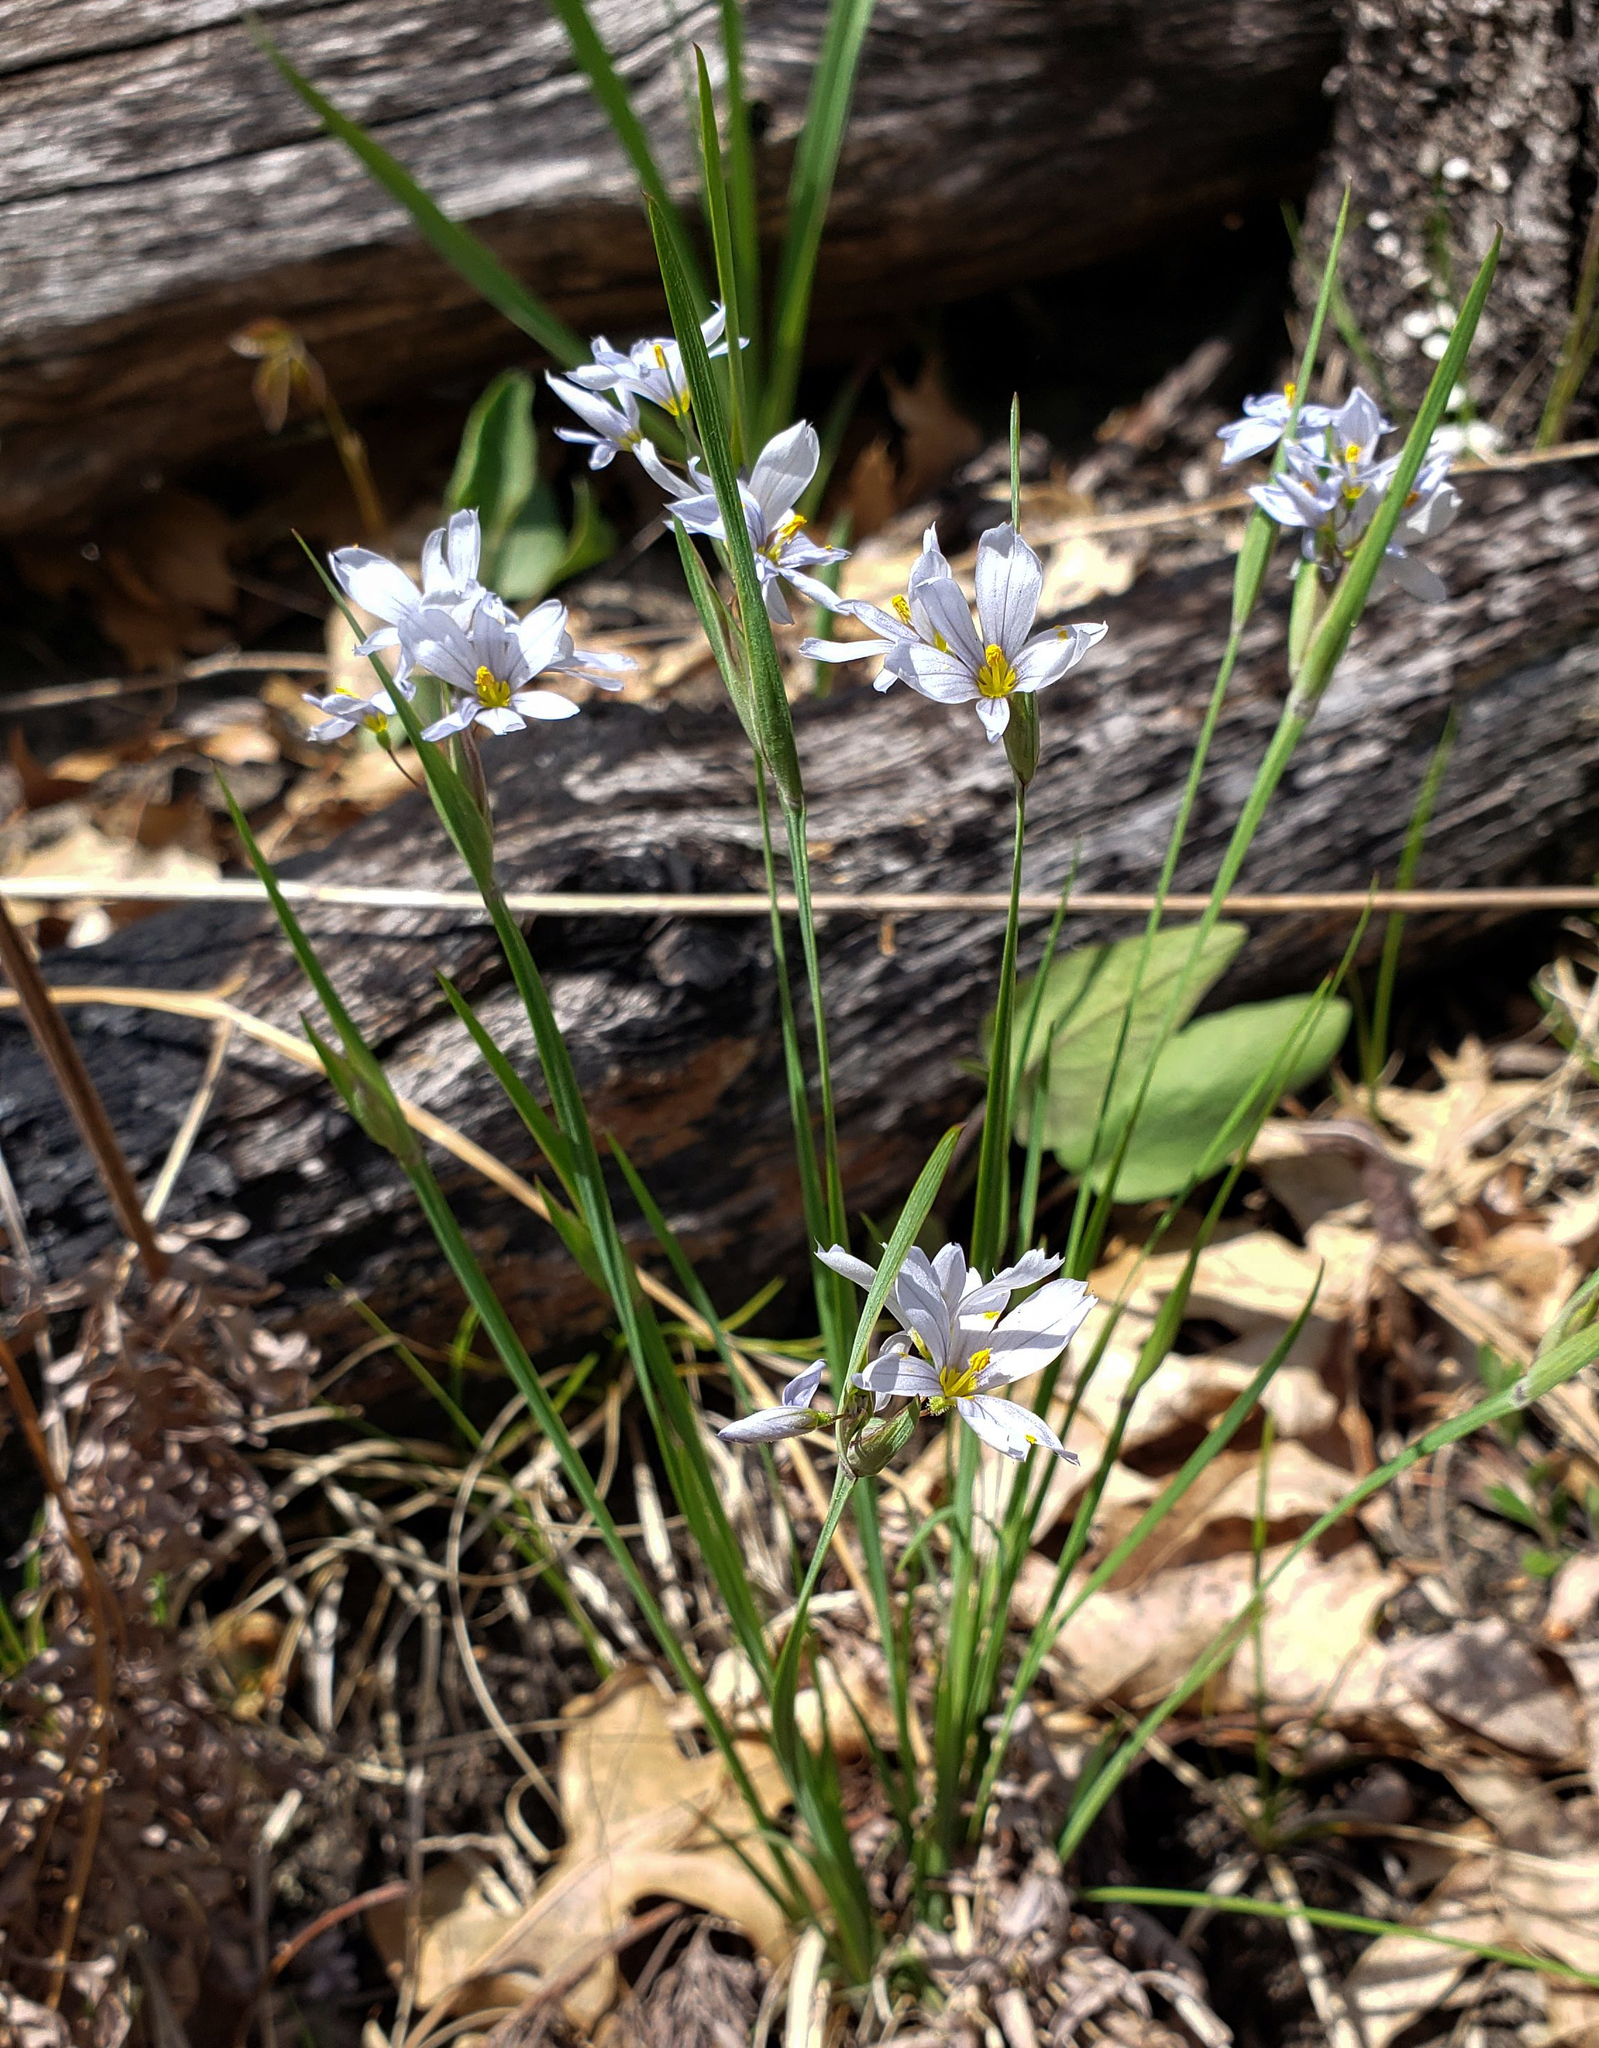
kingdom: Plantae
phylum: Tracheophyta
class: Liliopsida
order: Asparagales
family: Iridaceae
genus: Sisyrinchium
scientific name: Sisyrinchium campestre
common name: Prairie blue-eyed-grass
